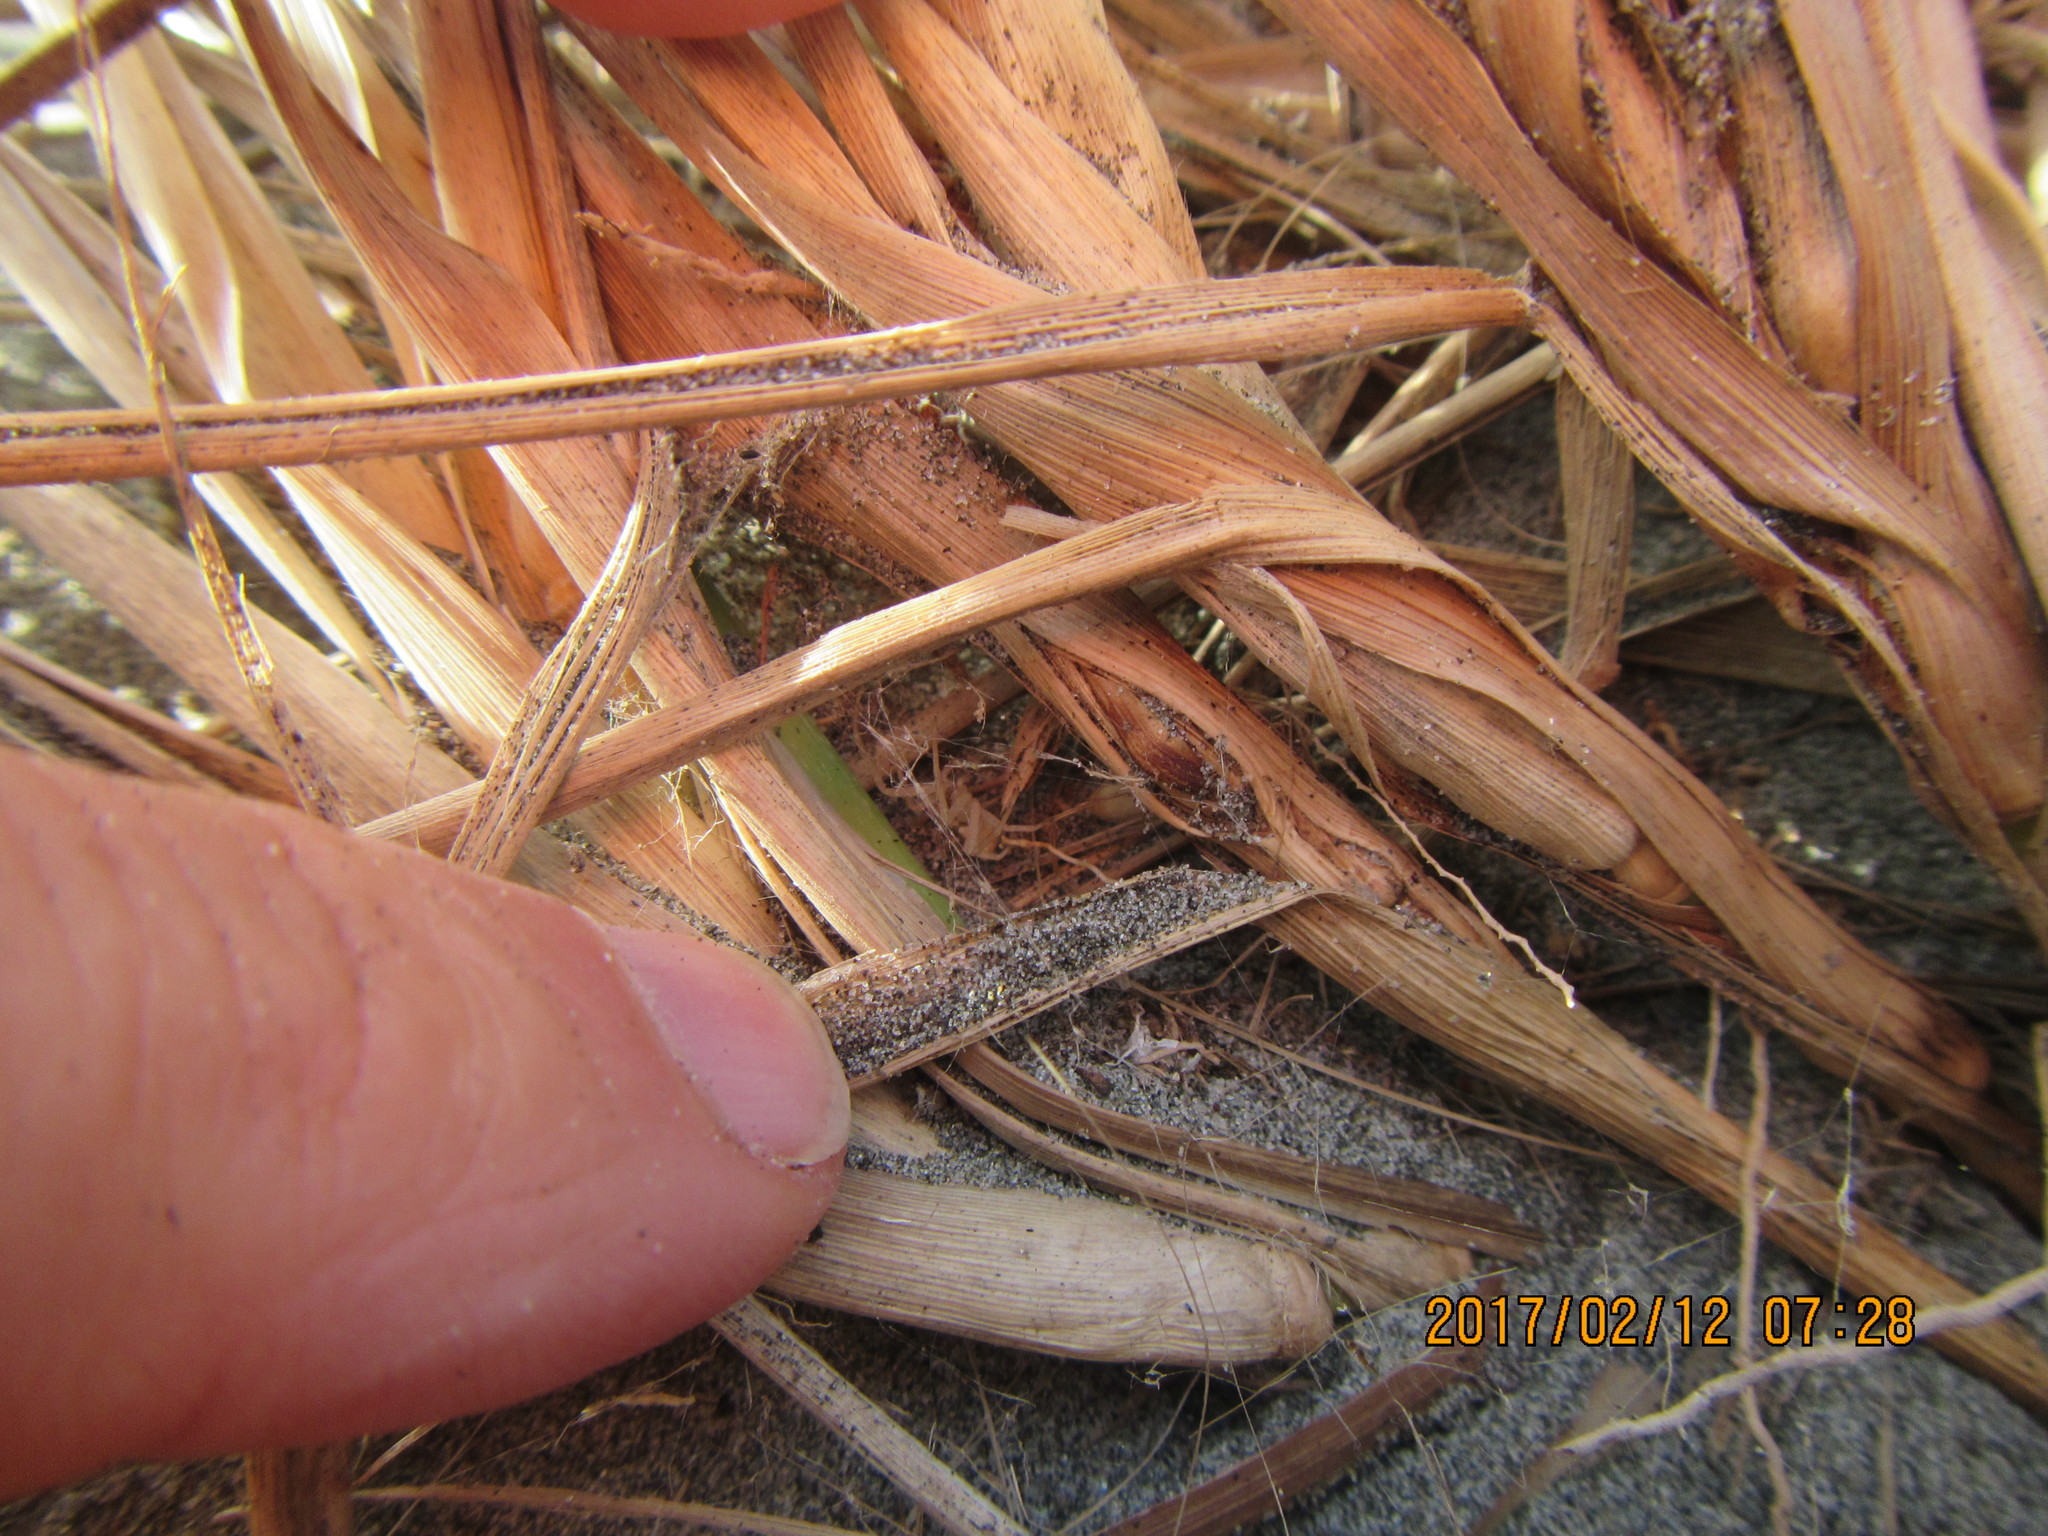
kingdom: Animalia
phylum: Arthropoda
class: Arachnida
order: Araneae
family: Thomisidae
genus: Sidymella
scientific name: Sidymella trapezia
